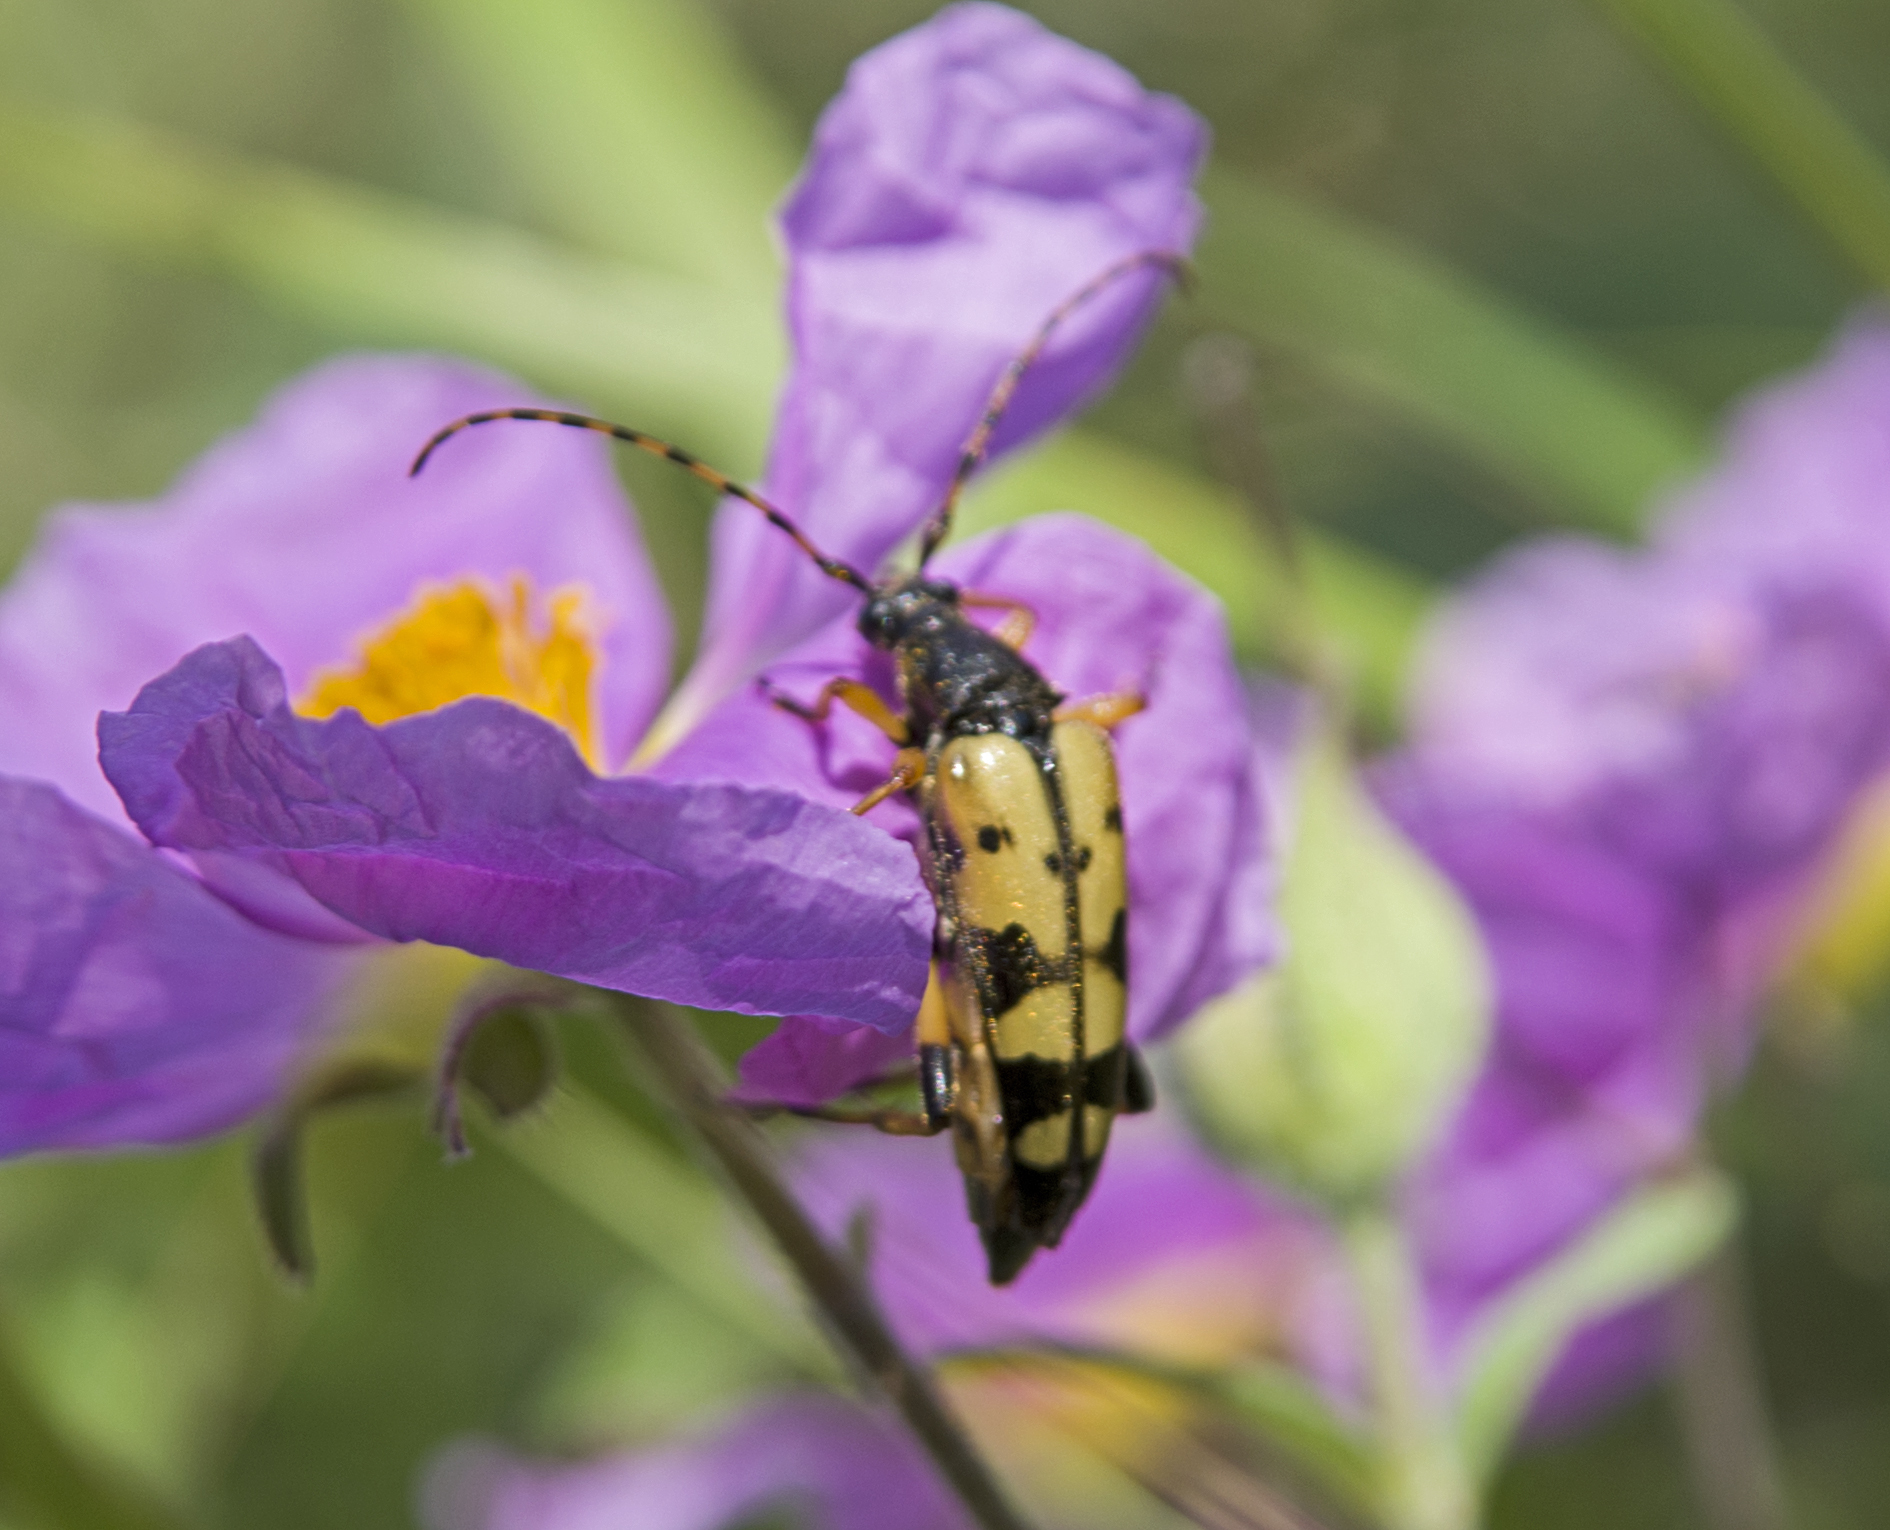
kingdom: Animalia
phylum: Arthropoda
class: Insecta
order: Coleoptera
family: Cerambycidae
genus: Rutpela
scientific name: Rutpela maculata
